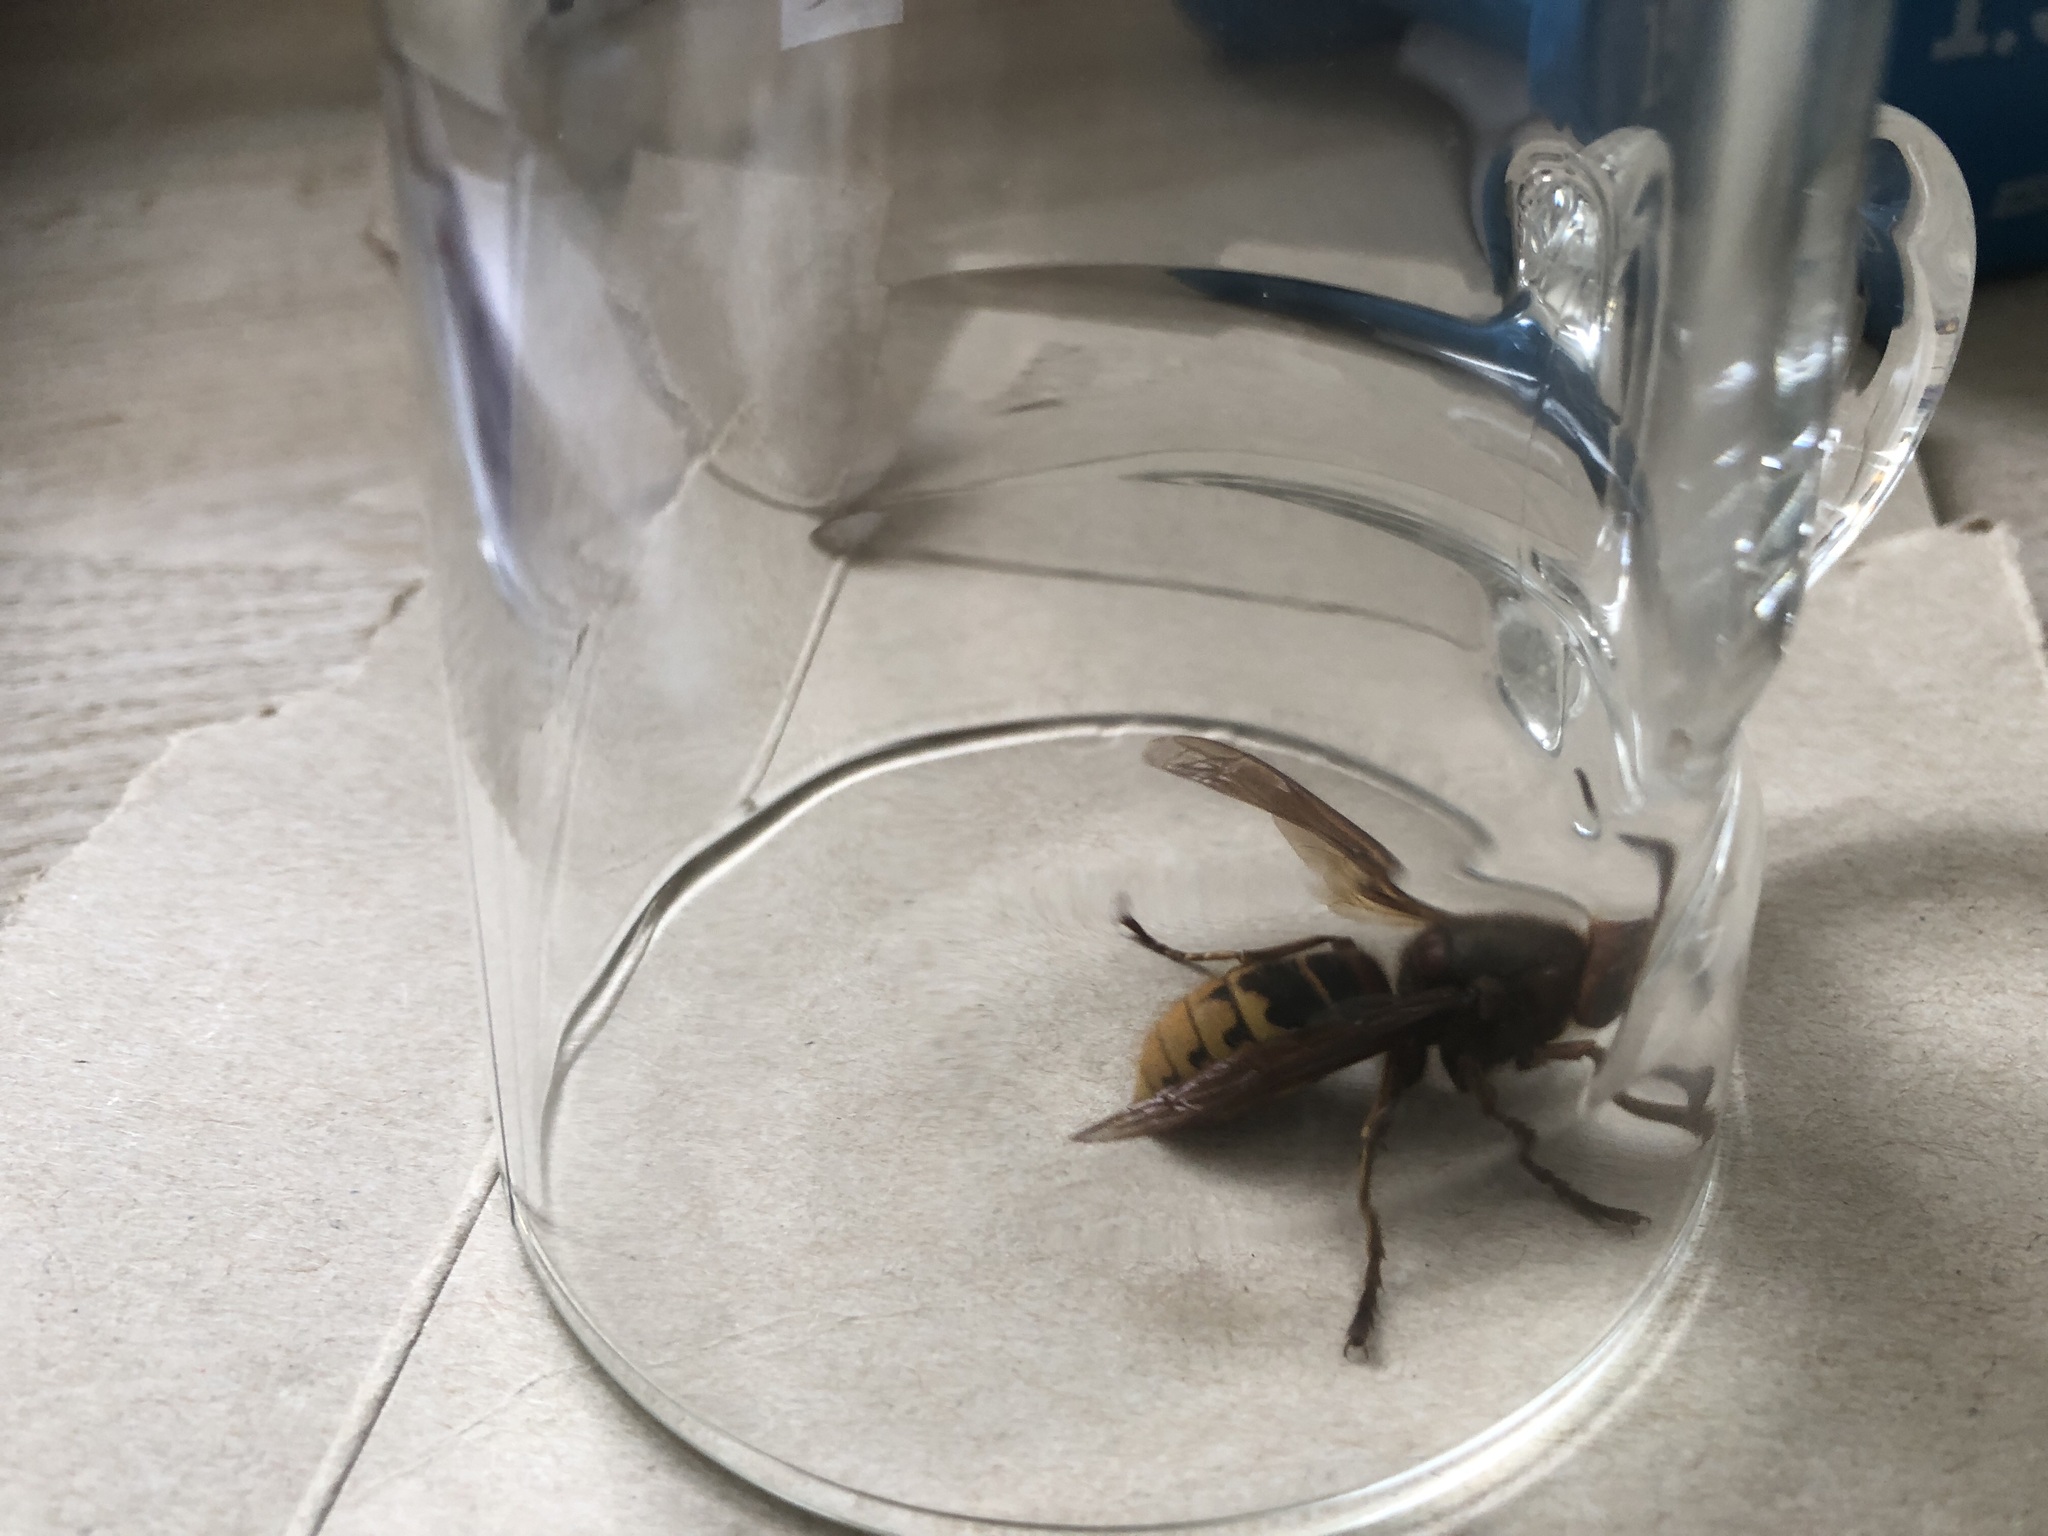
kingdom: Animalia
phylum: Arthropoda
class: Insecta
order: Hymenoptera
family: Vespidae
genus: Vespa
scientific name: Vespa crabro
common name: Hornet
